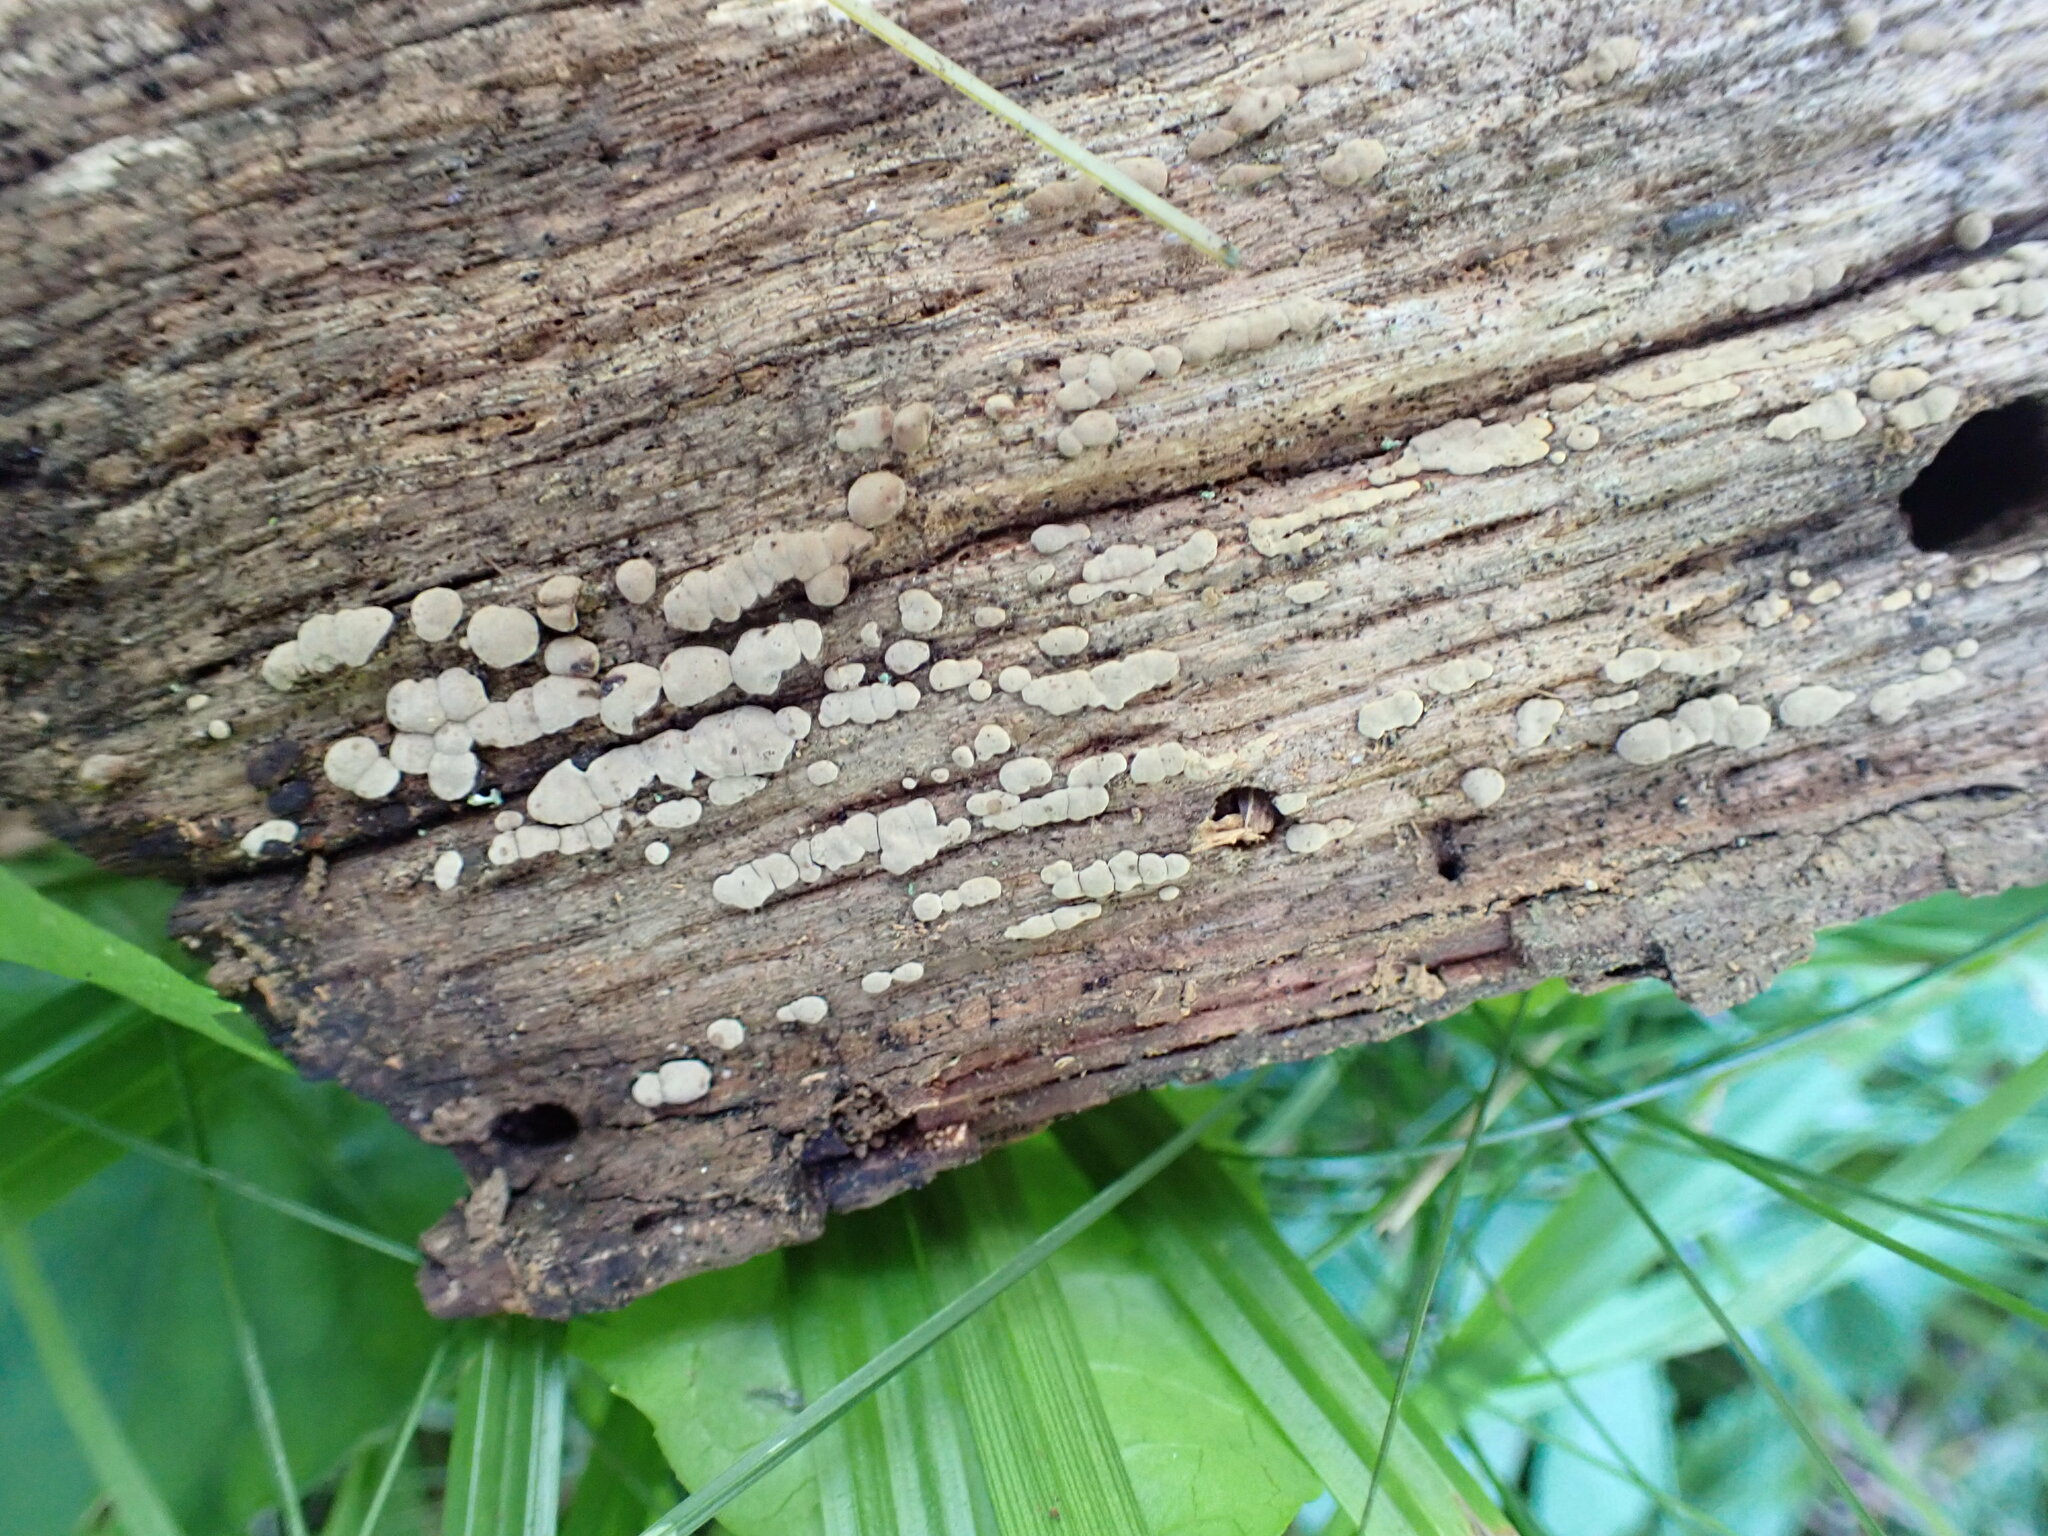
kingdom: Fungi
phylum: Basidiomycota
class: Agaricomycetes
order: Russulales
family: Stereaceae
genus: Xylobolus
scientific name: Xylobolus frustulatus
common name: Ceramic parchment
